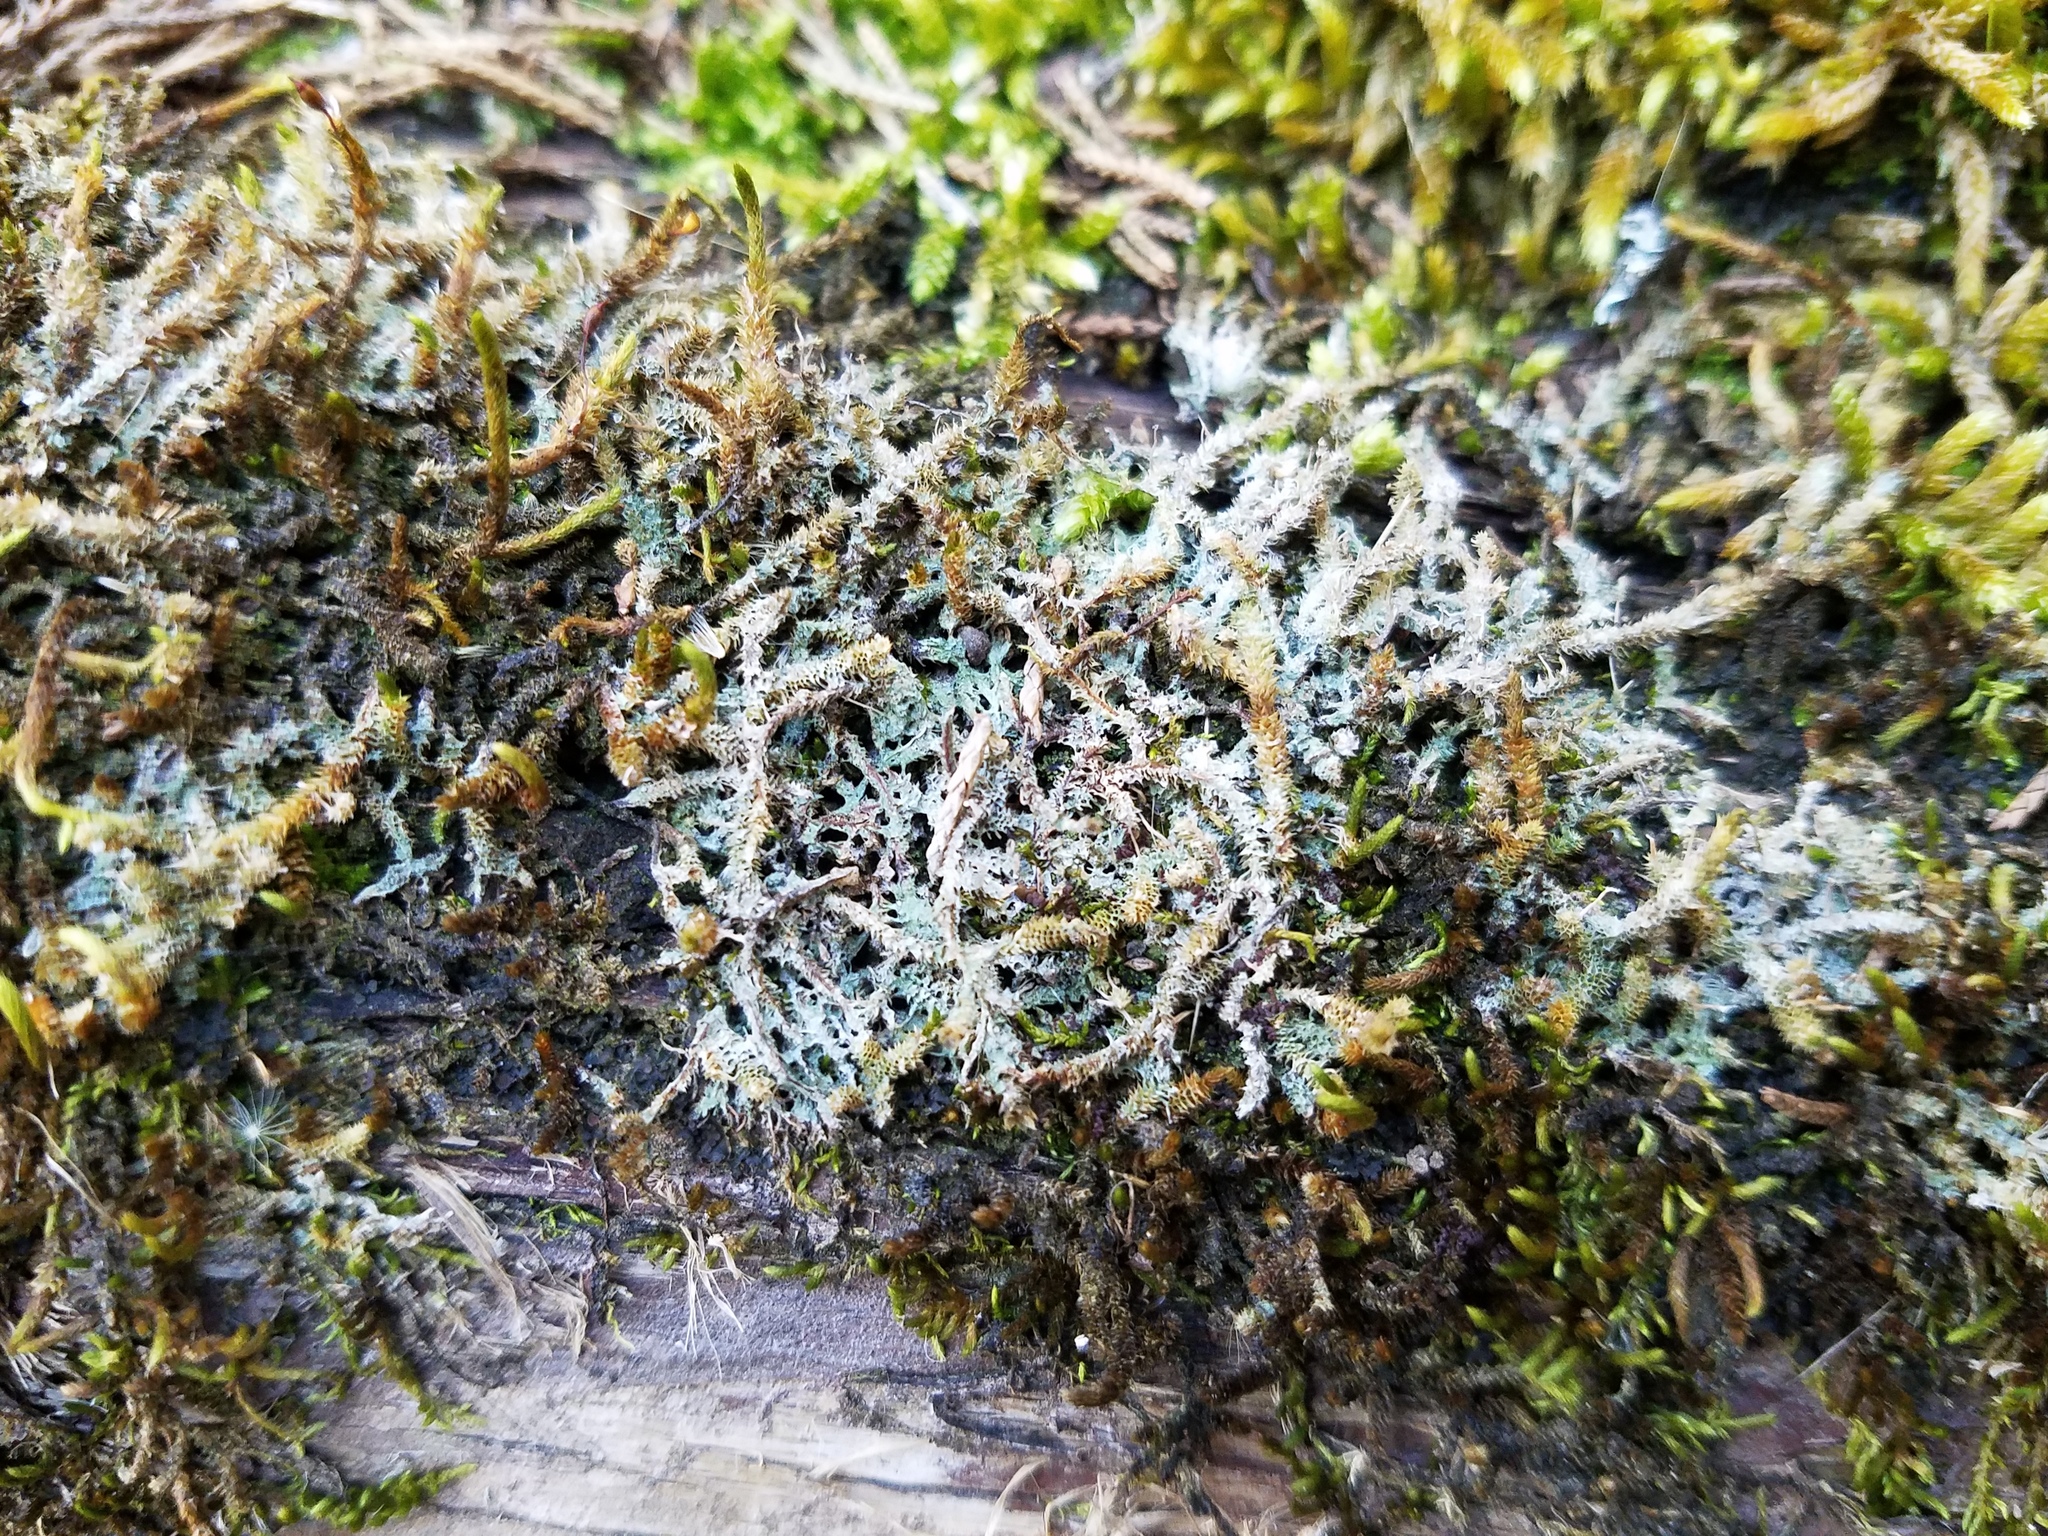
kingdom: Fungi
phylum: Ascomycota
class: Lecanoromycetes
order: Ostropales
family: Gomphillaceae
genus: Gomphillus
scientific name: Gomphillus americanus
